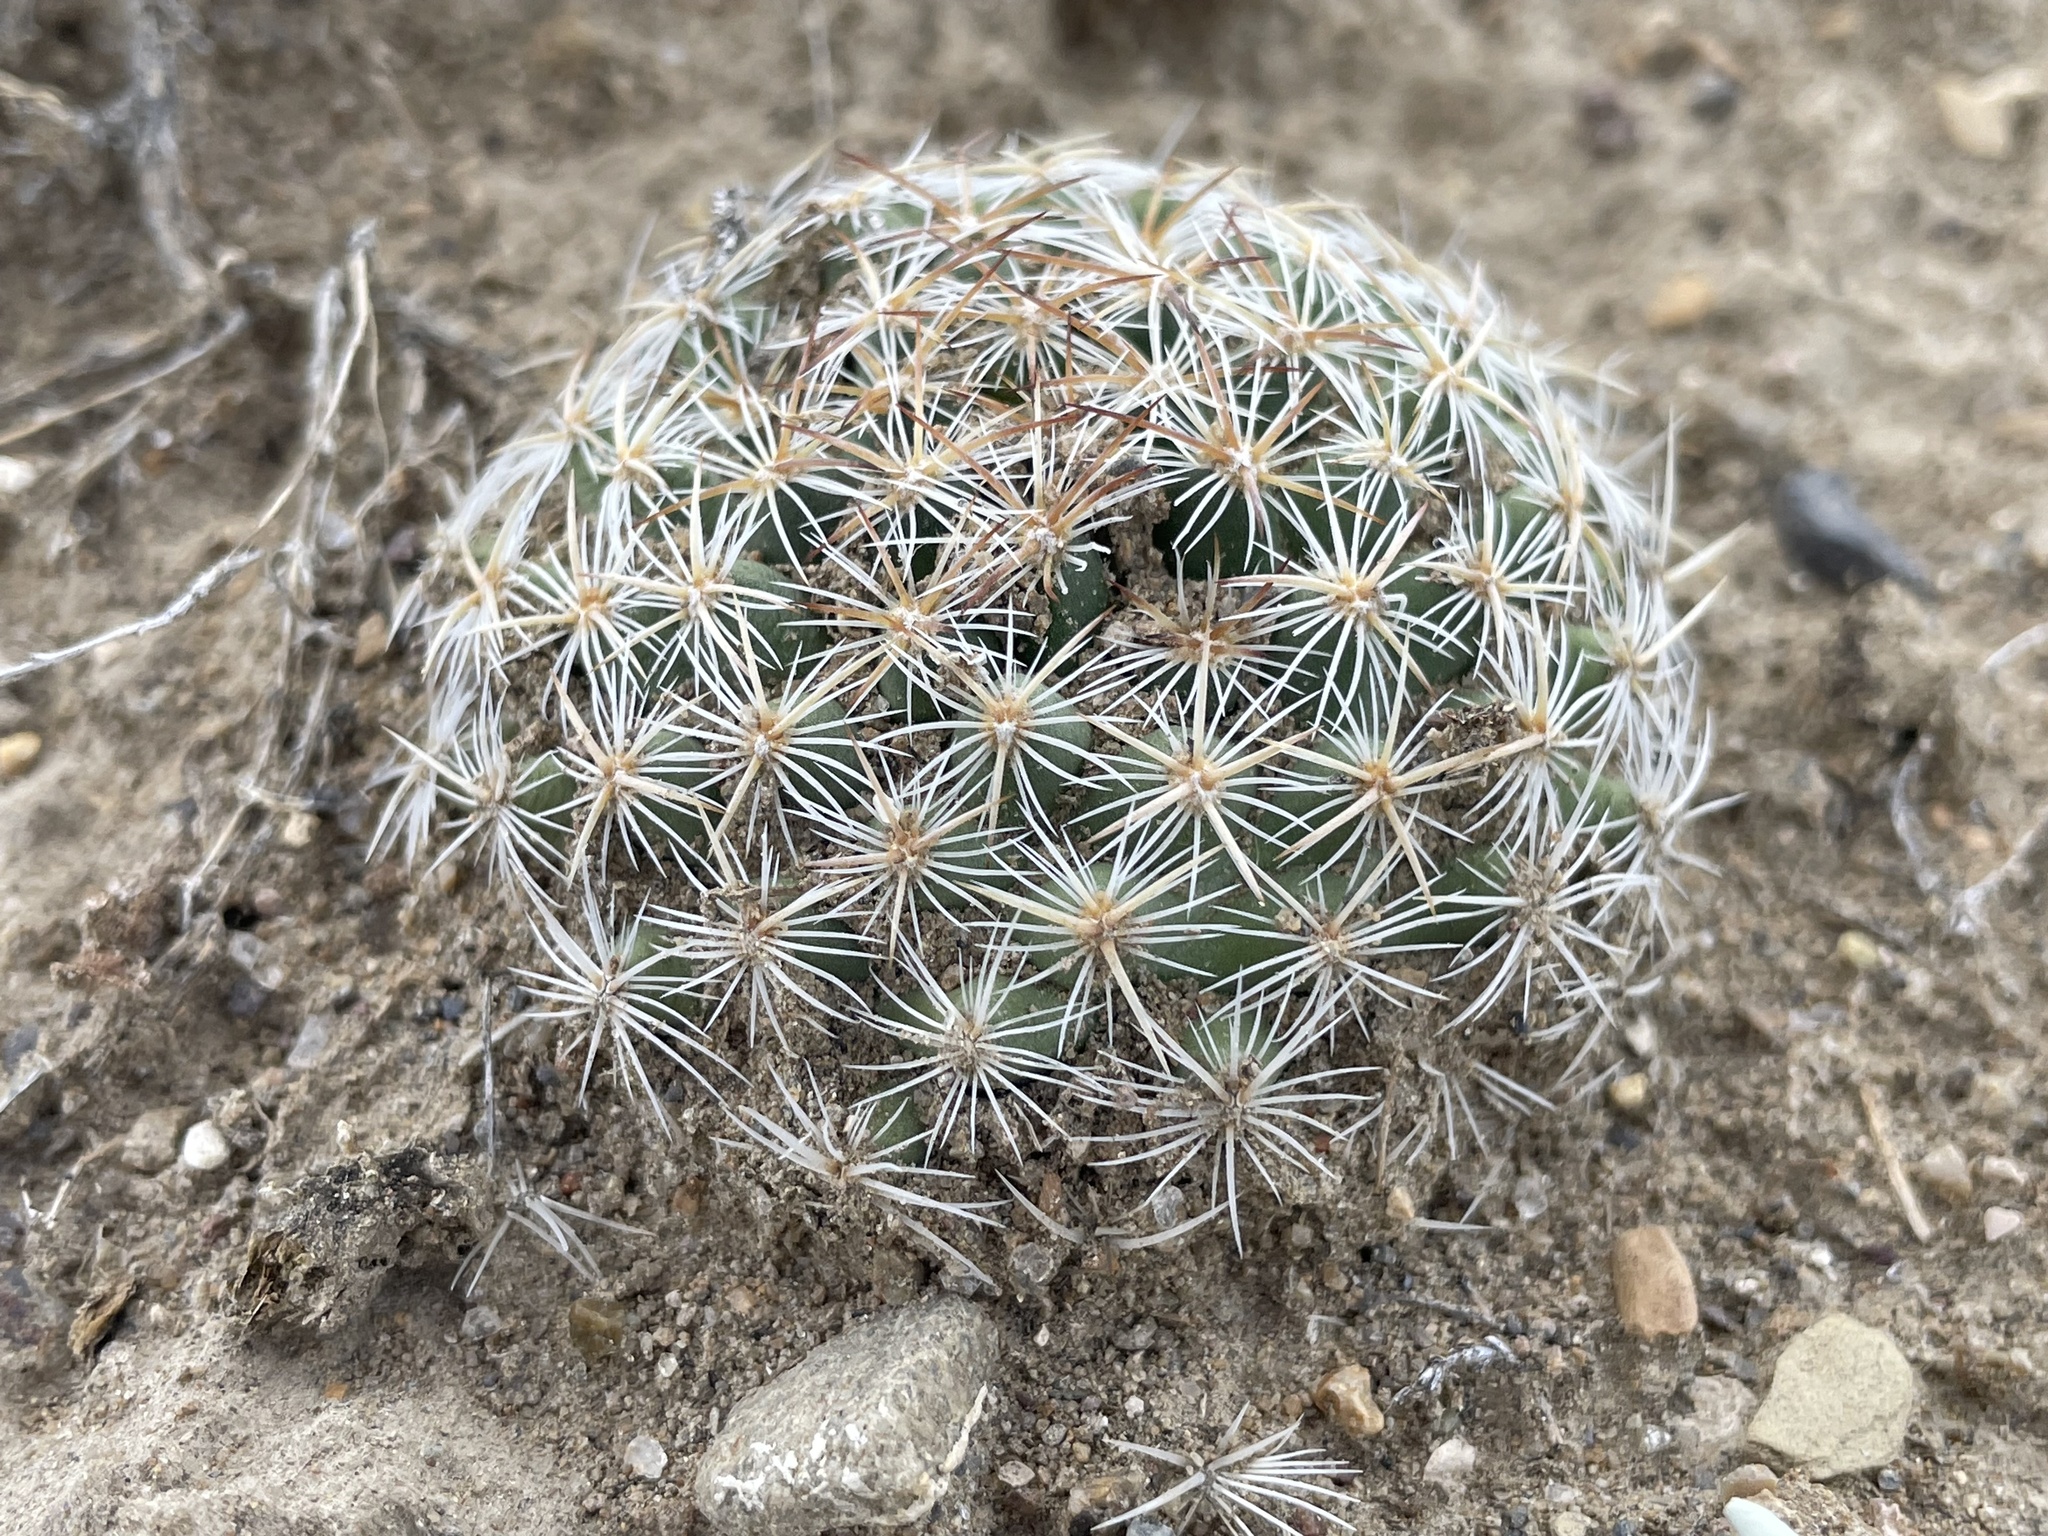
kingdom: Plantae
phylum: Tracheophyta
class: Magnoliopsida
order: Caryophyllales
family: Cactaceae
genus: Pediocactus
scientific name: Pediocactus simpsonii
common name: Simpson's hedgehog cactus
